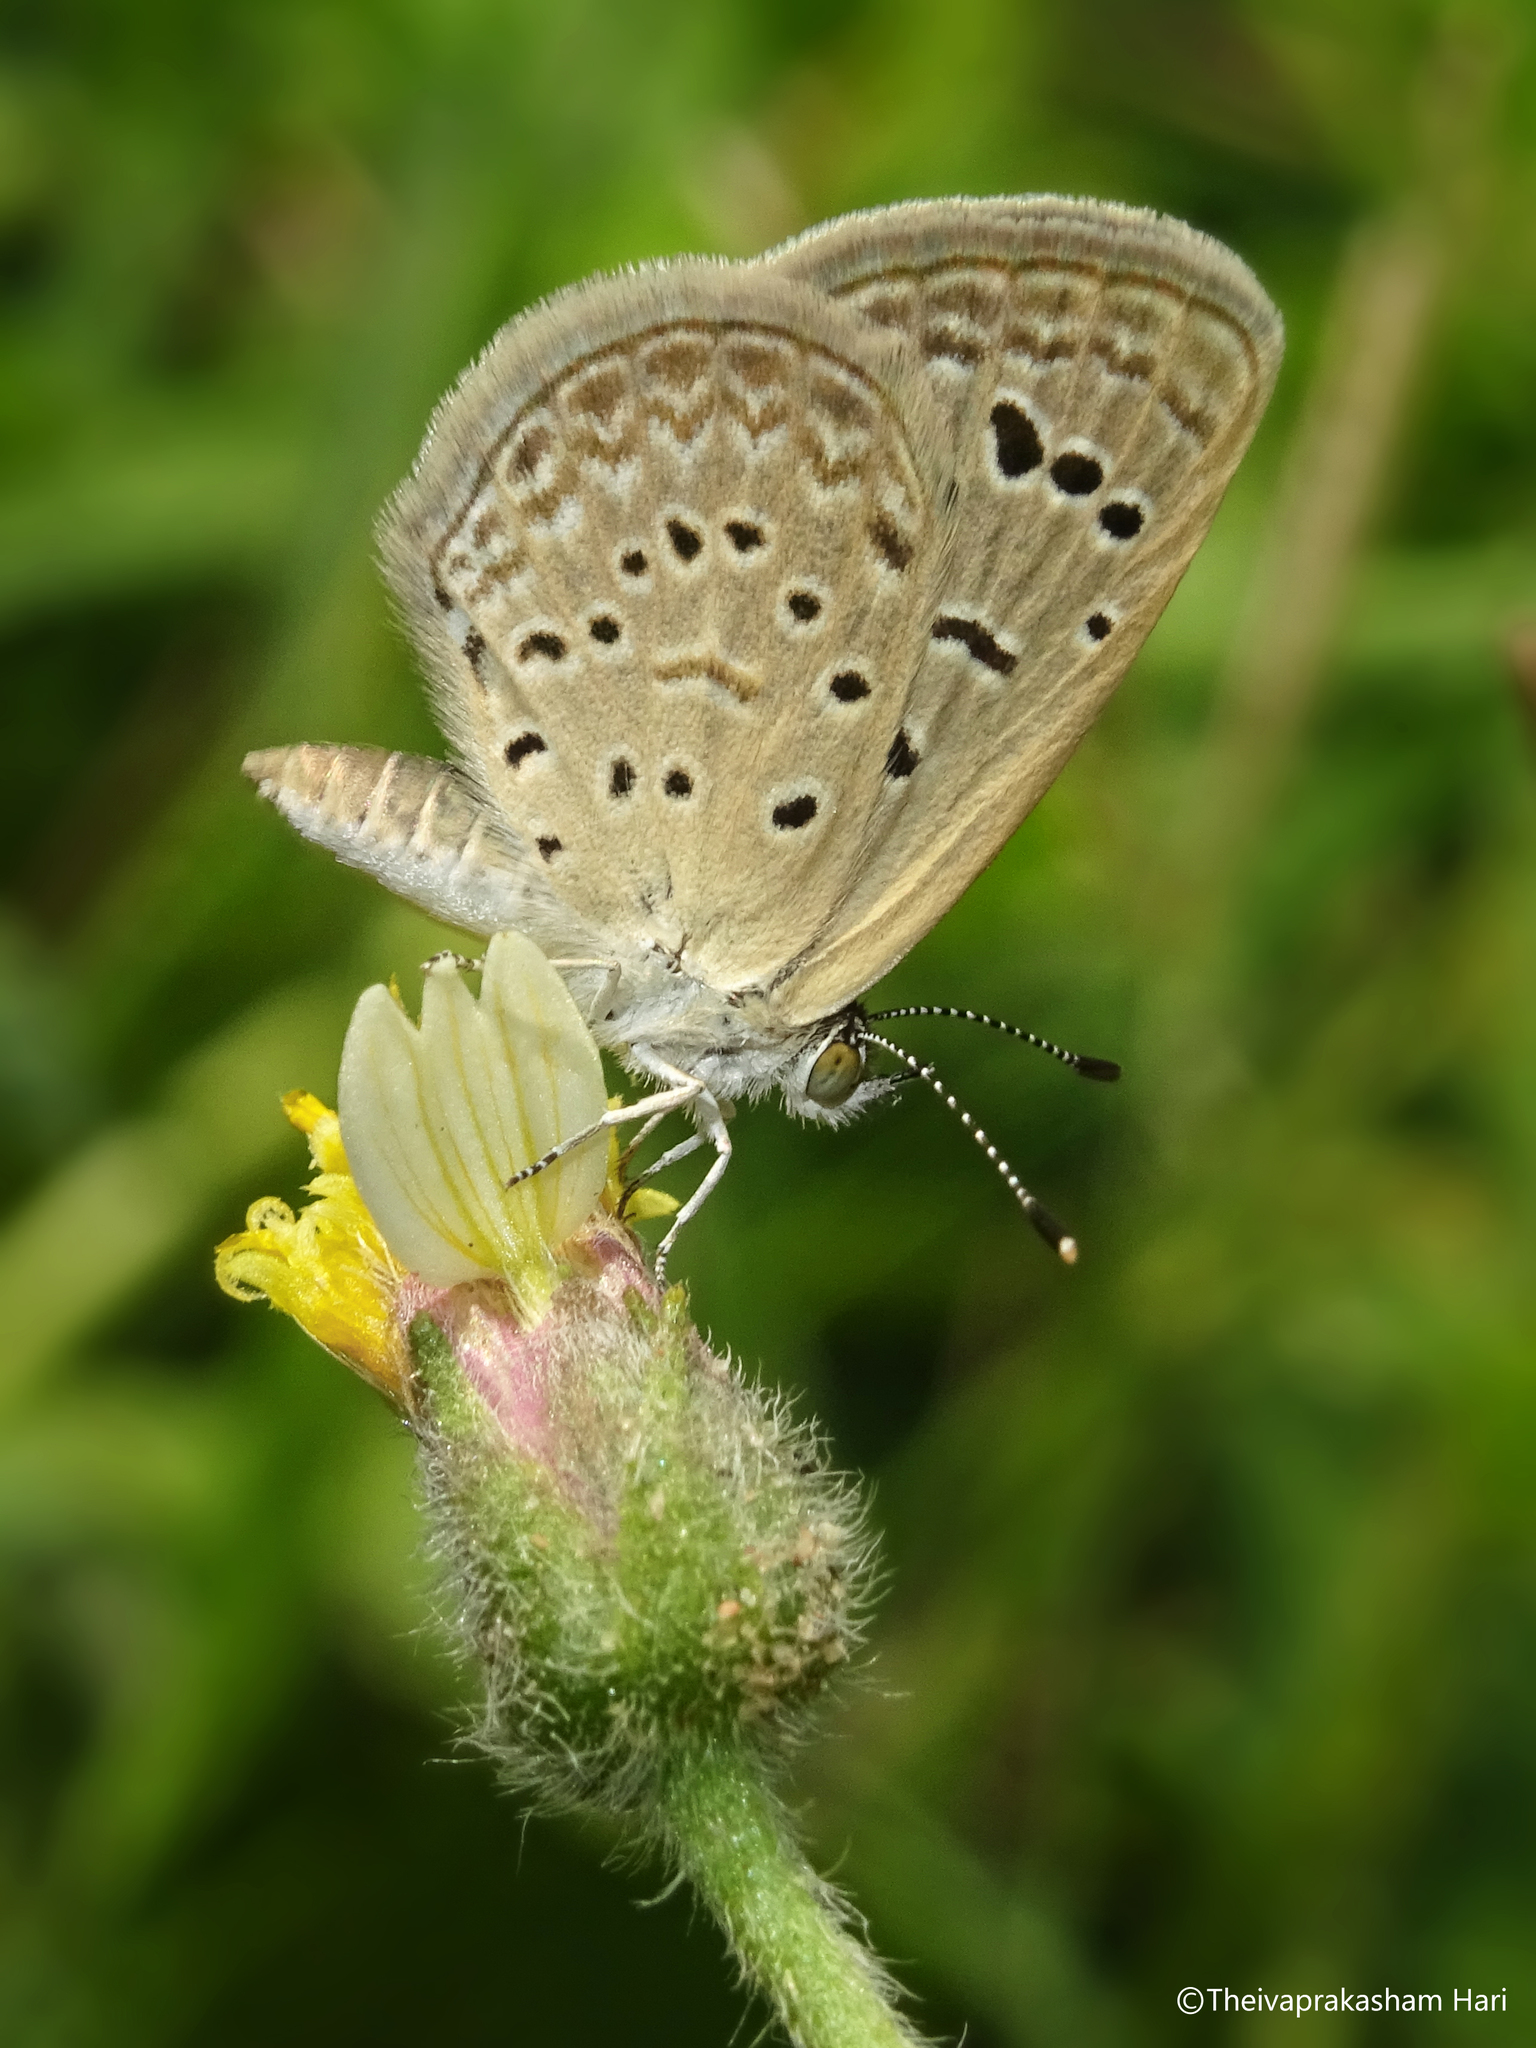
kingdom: Animalia
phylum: Arthropoda
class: Insecta
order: Lepidoptera
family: Lycaenidae
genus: Zizeeria
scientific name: Zizeeria karsandra
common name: Dark grass blue
